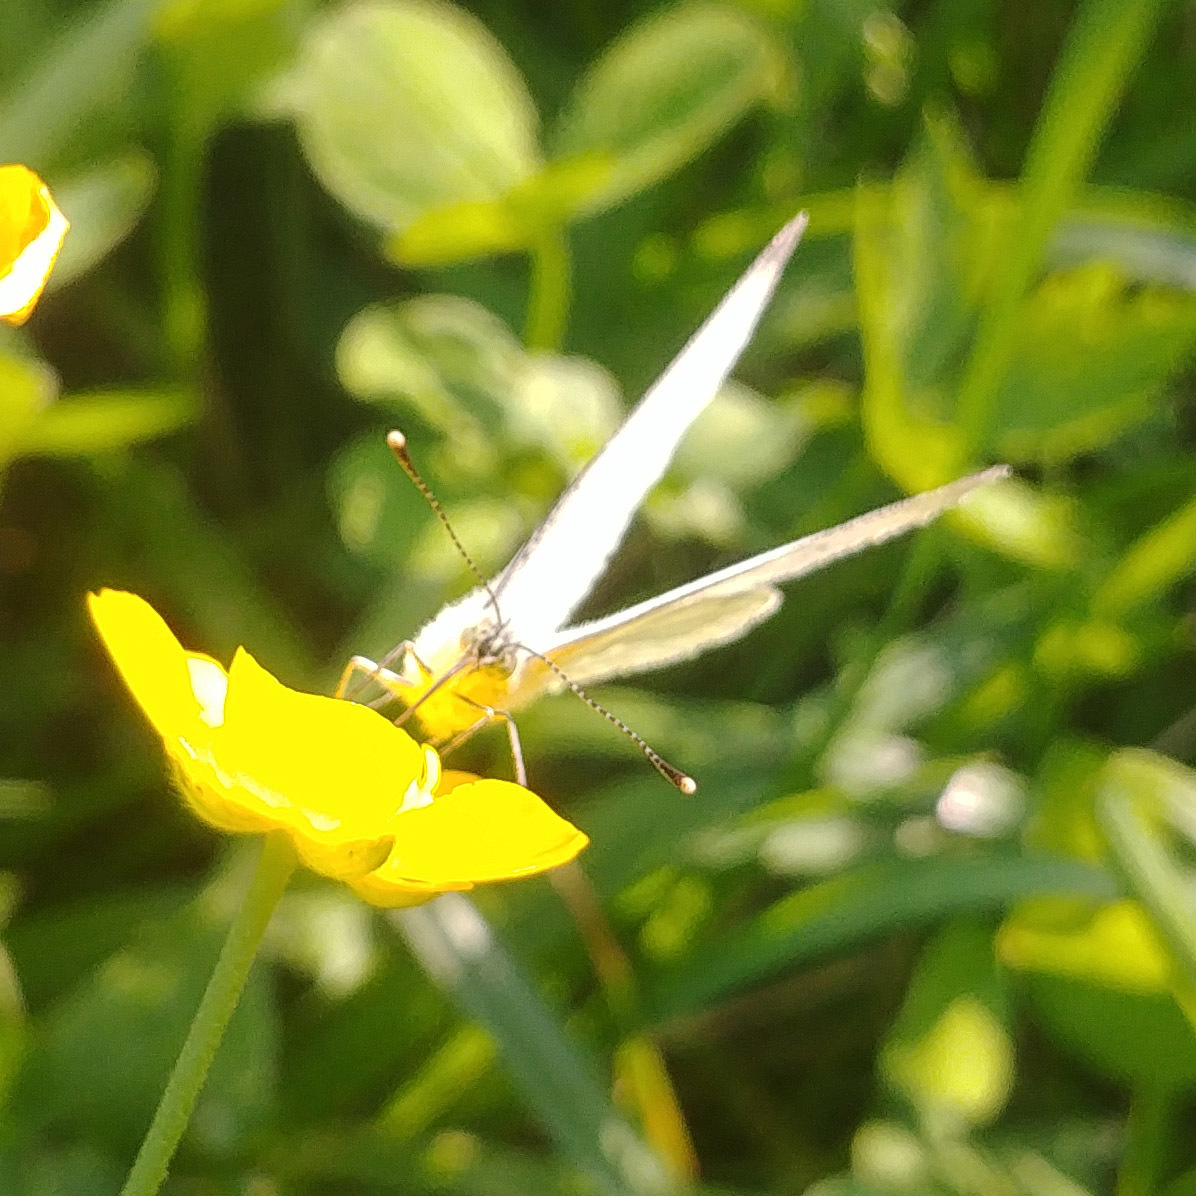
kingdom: Animalia
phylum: Arthropoda
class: Insecta
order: Lepidoptera
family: Pieridae
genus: Pieris
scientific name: Pieris napi
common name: Green-veined white
